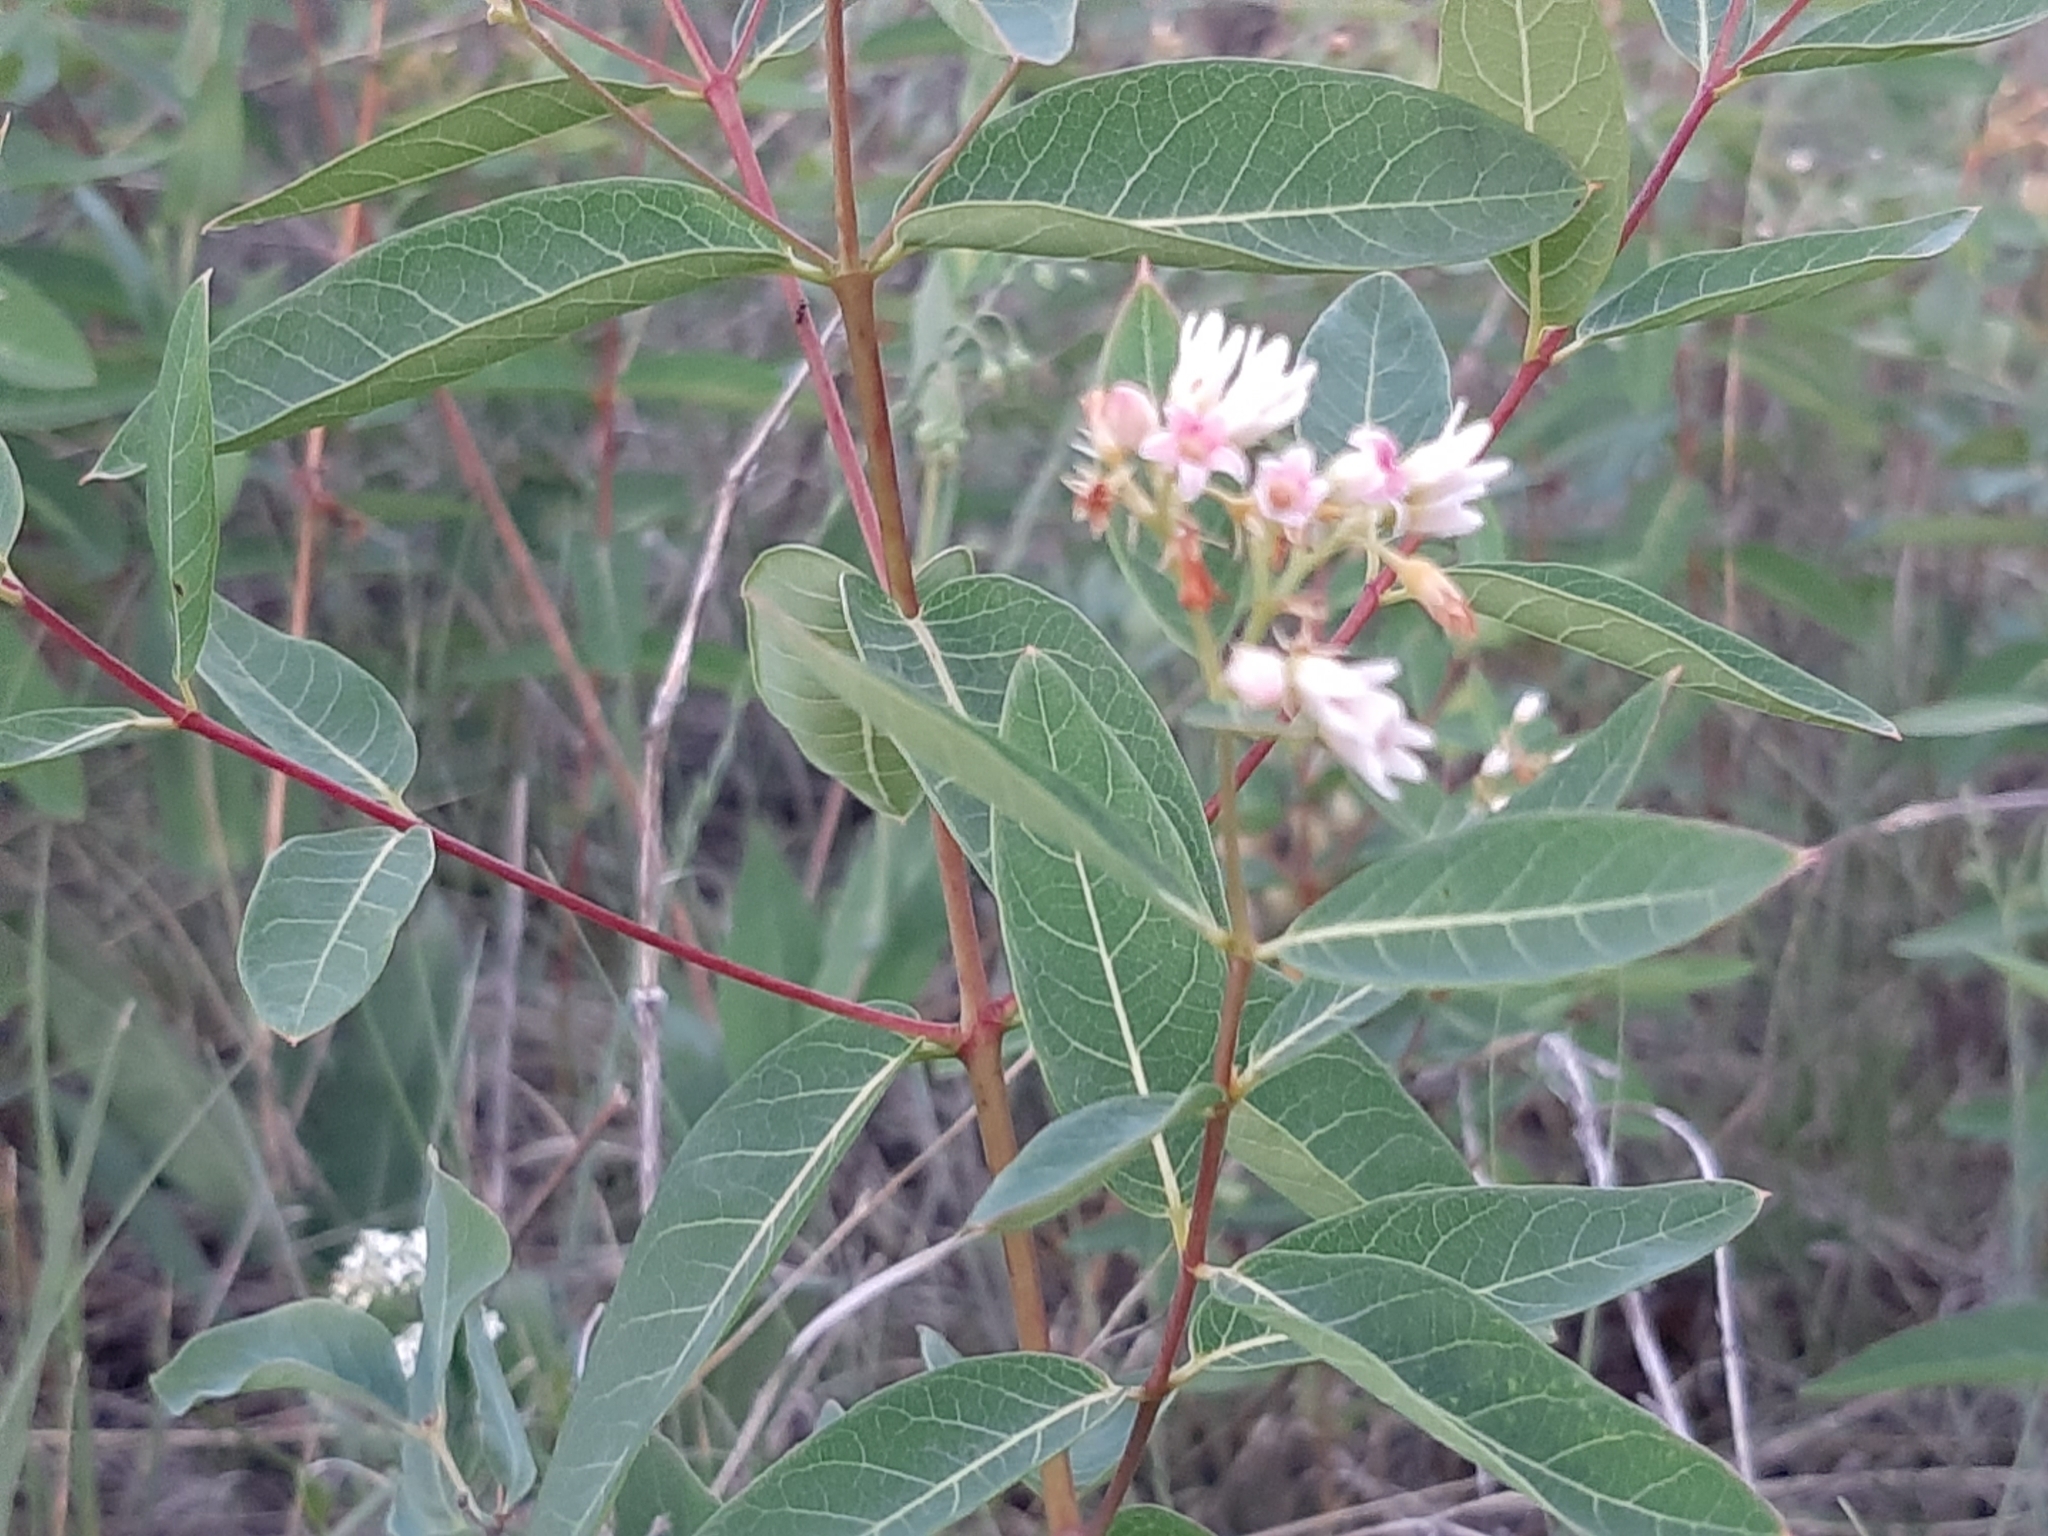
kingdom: Plantae
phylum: Tracheophyta
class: Magnoliopsida
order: Gentianales
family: Apocynaceae
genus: Apocynum
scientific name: Apocynum androsaemifolium
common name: Spreading dogbane
